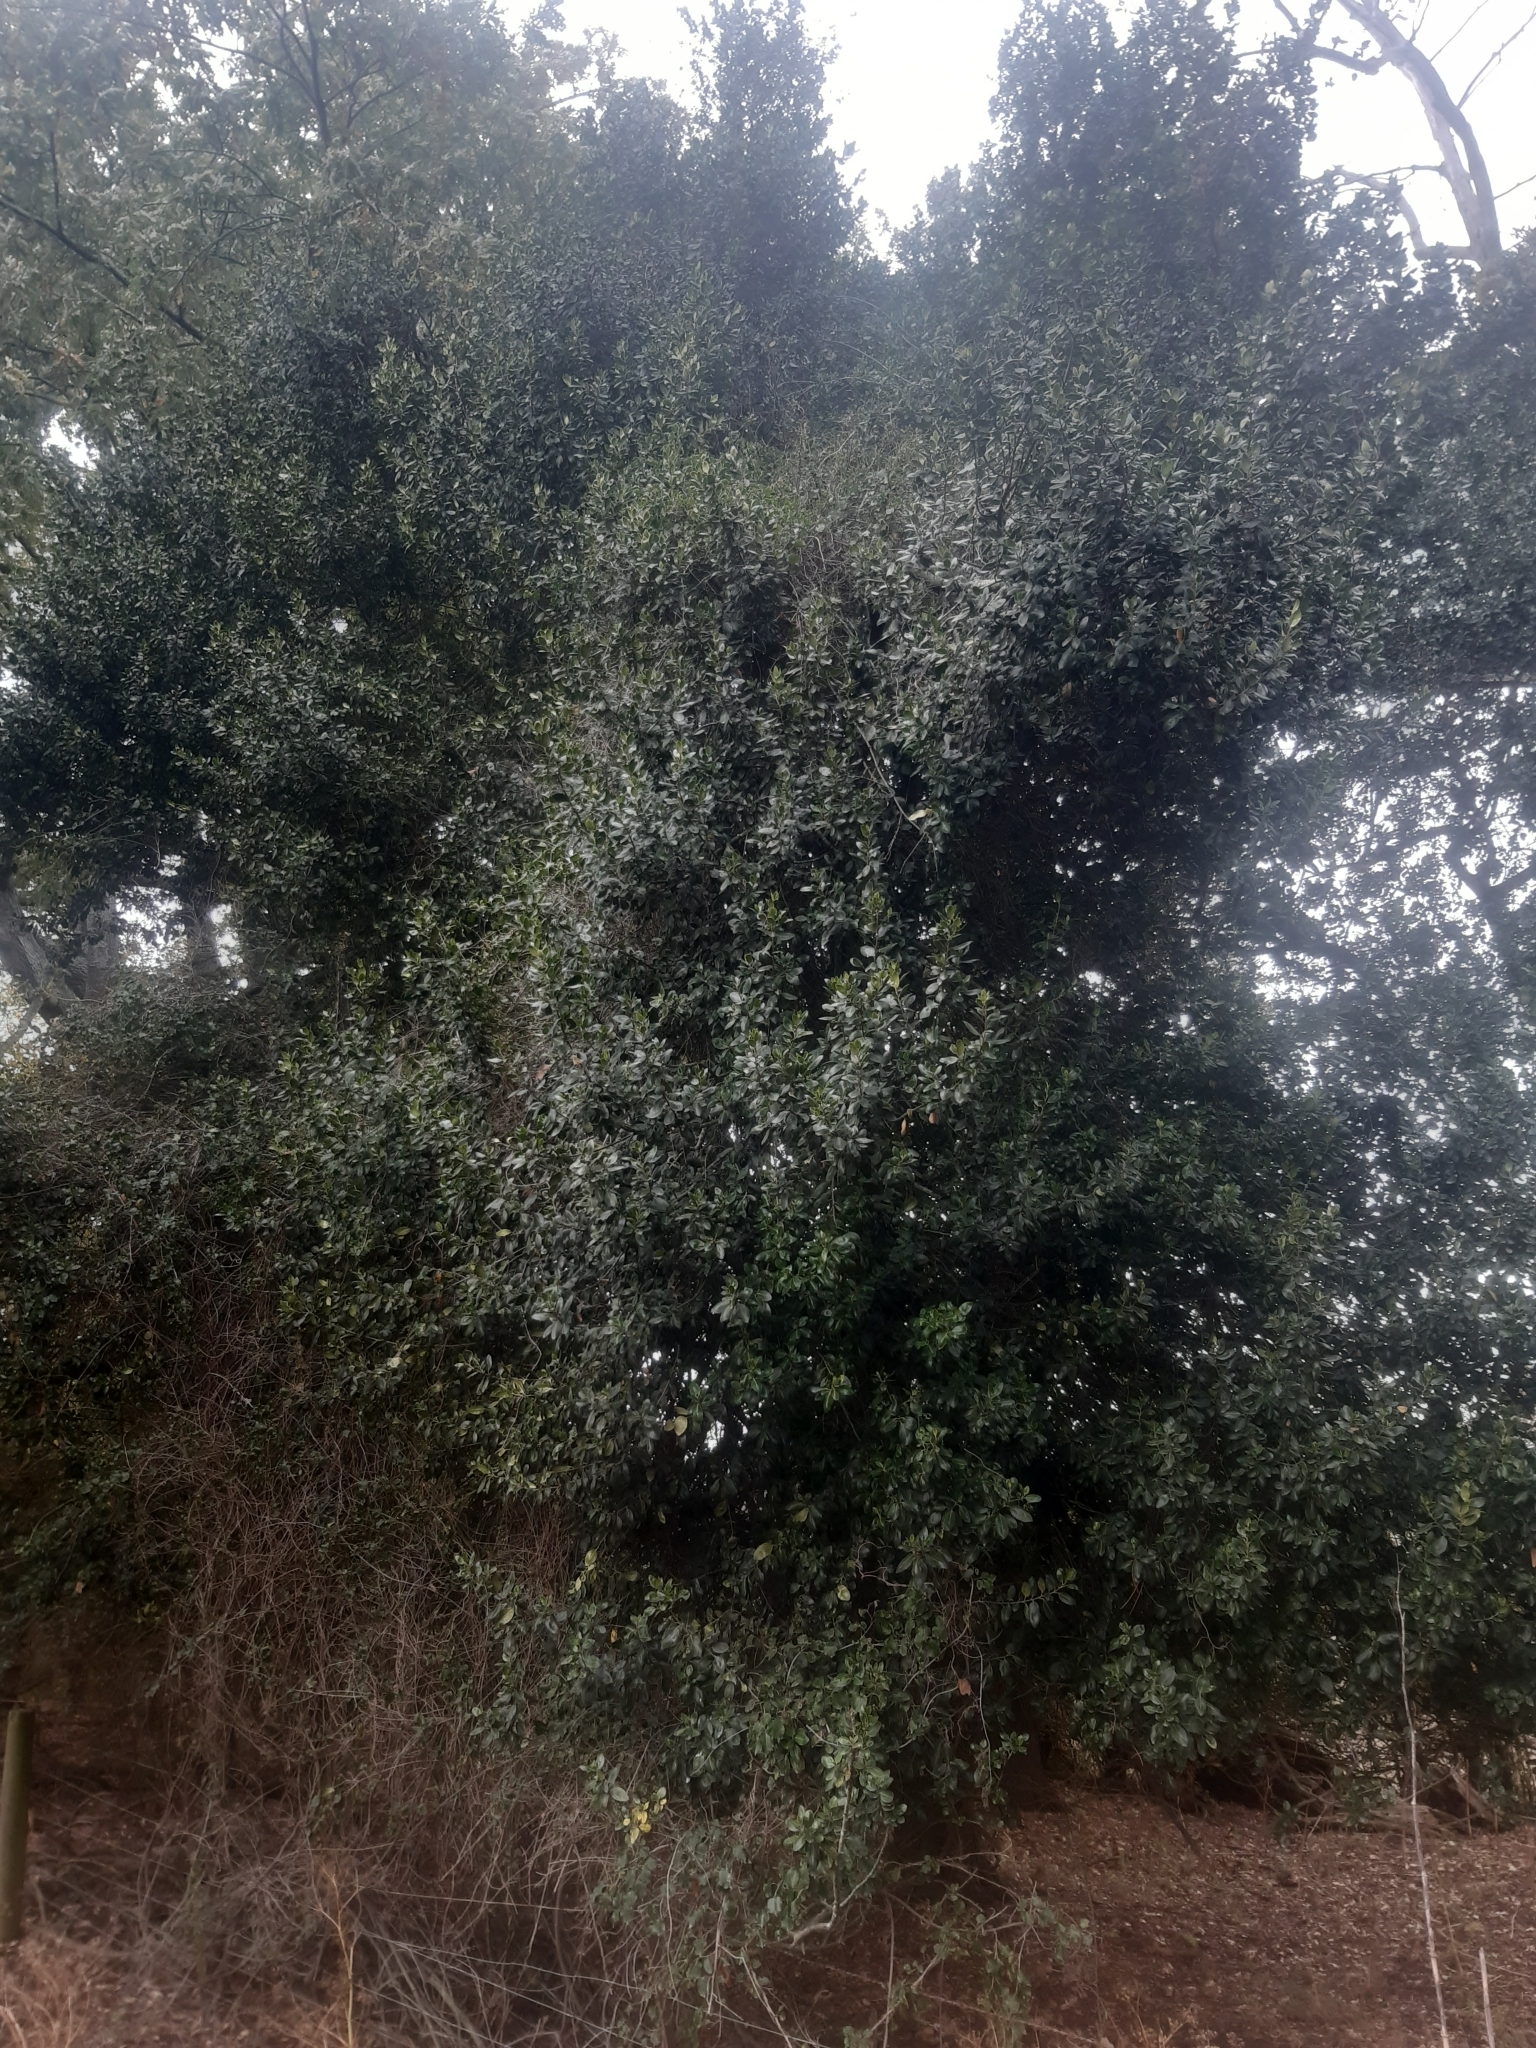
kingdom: Plantae
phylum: Tracheophyta
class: Magnoliopsida
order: Rosales
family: Rhamnaceae
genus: Rhamnus
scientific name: Rhamnus alaternus
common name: Mediterranean buckthorn
